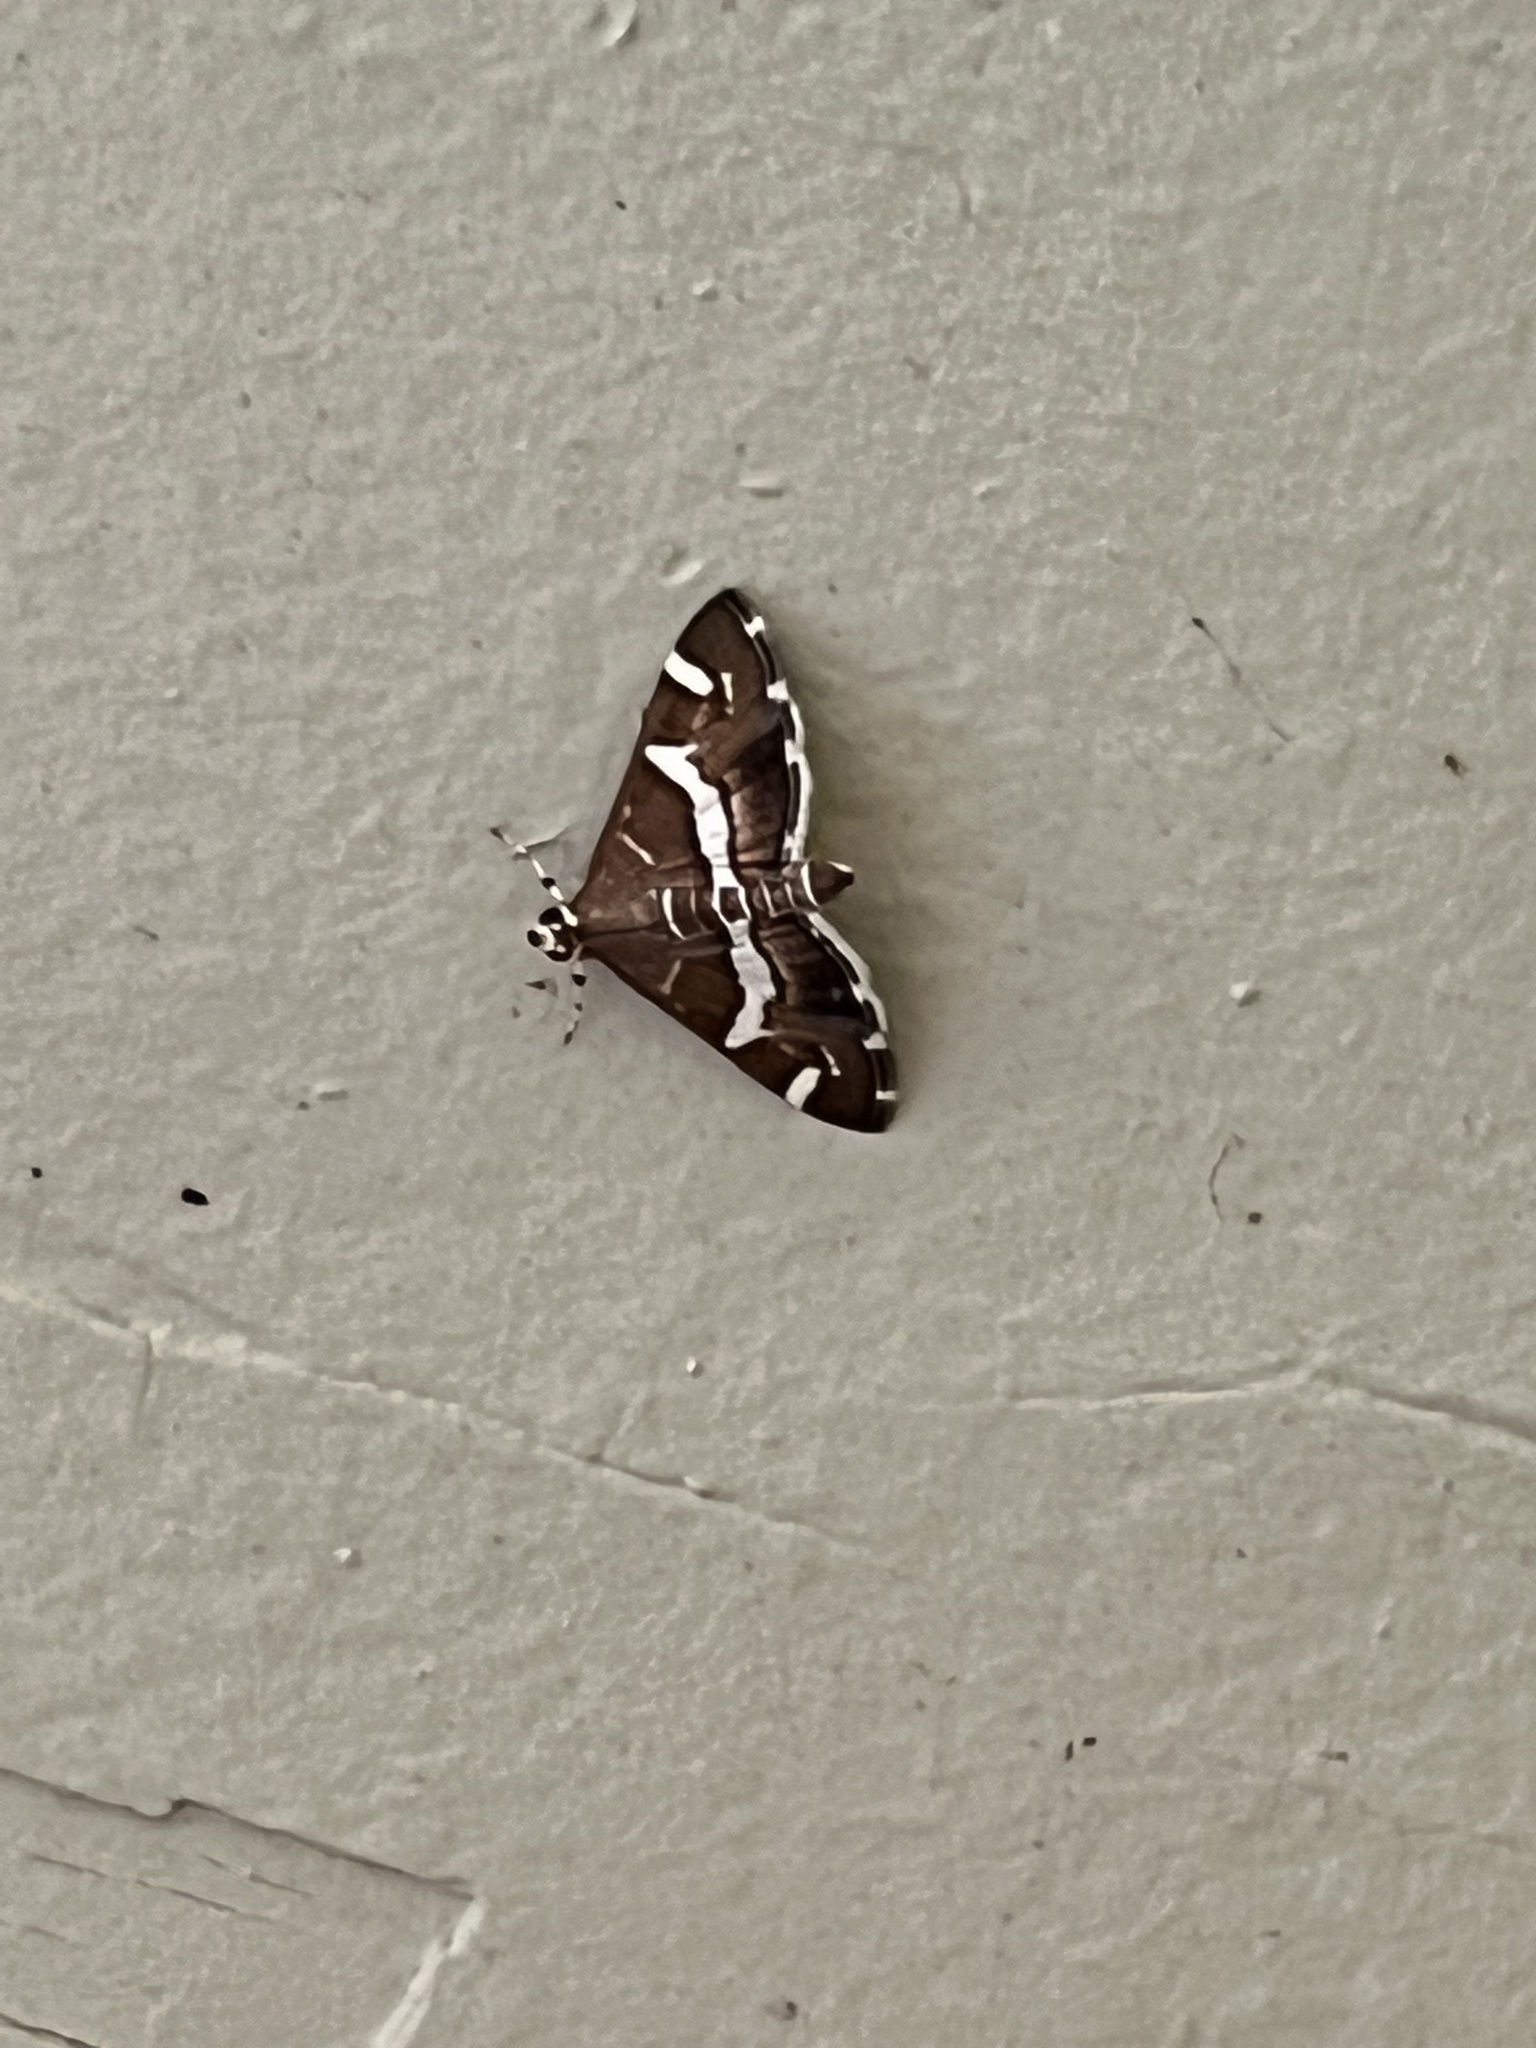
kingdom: Animalia
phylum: Arthropoda
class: Insecta
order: Lepidoptera
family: Crambidae
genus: Spoladea
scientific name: Spoladea recurvalis
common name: Beet webworm moth
